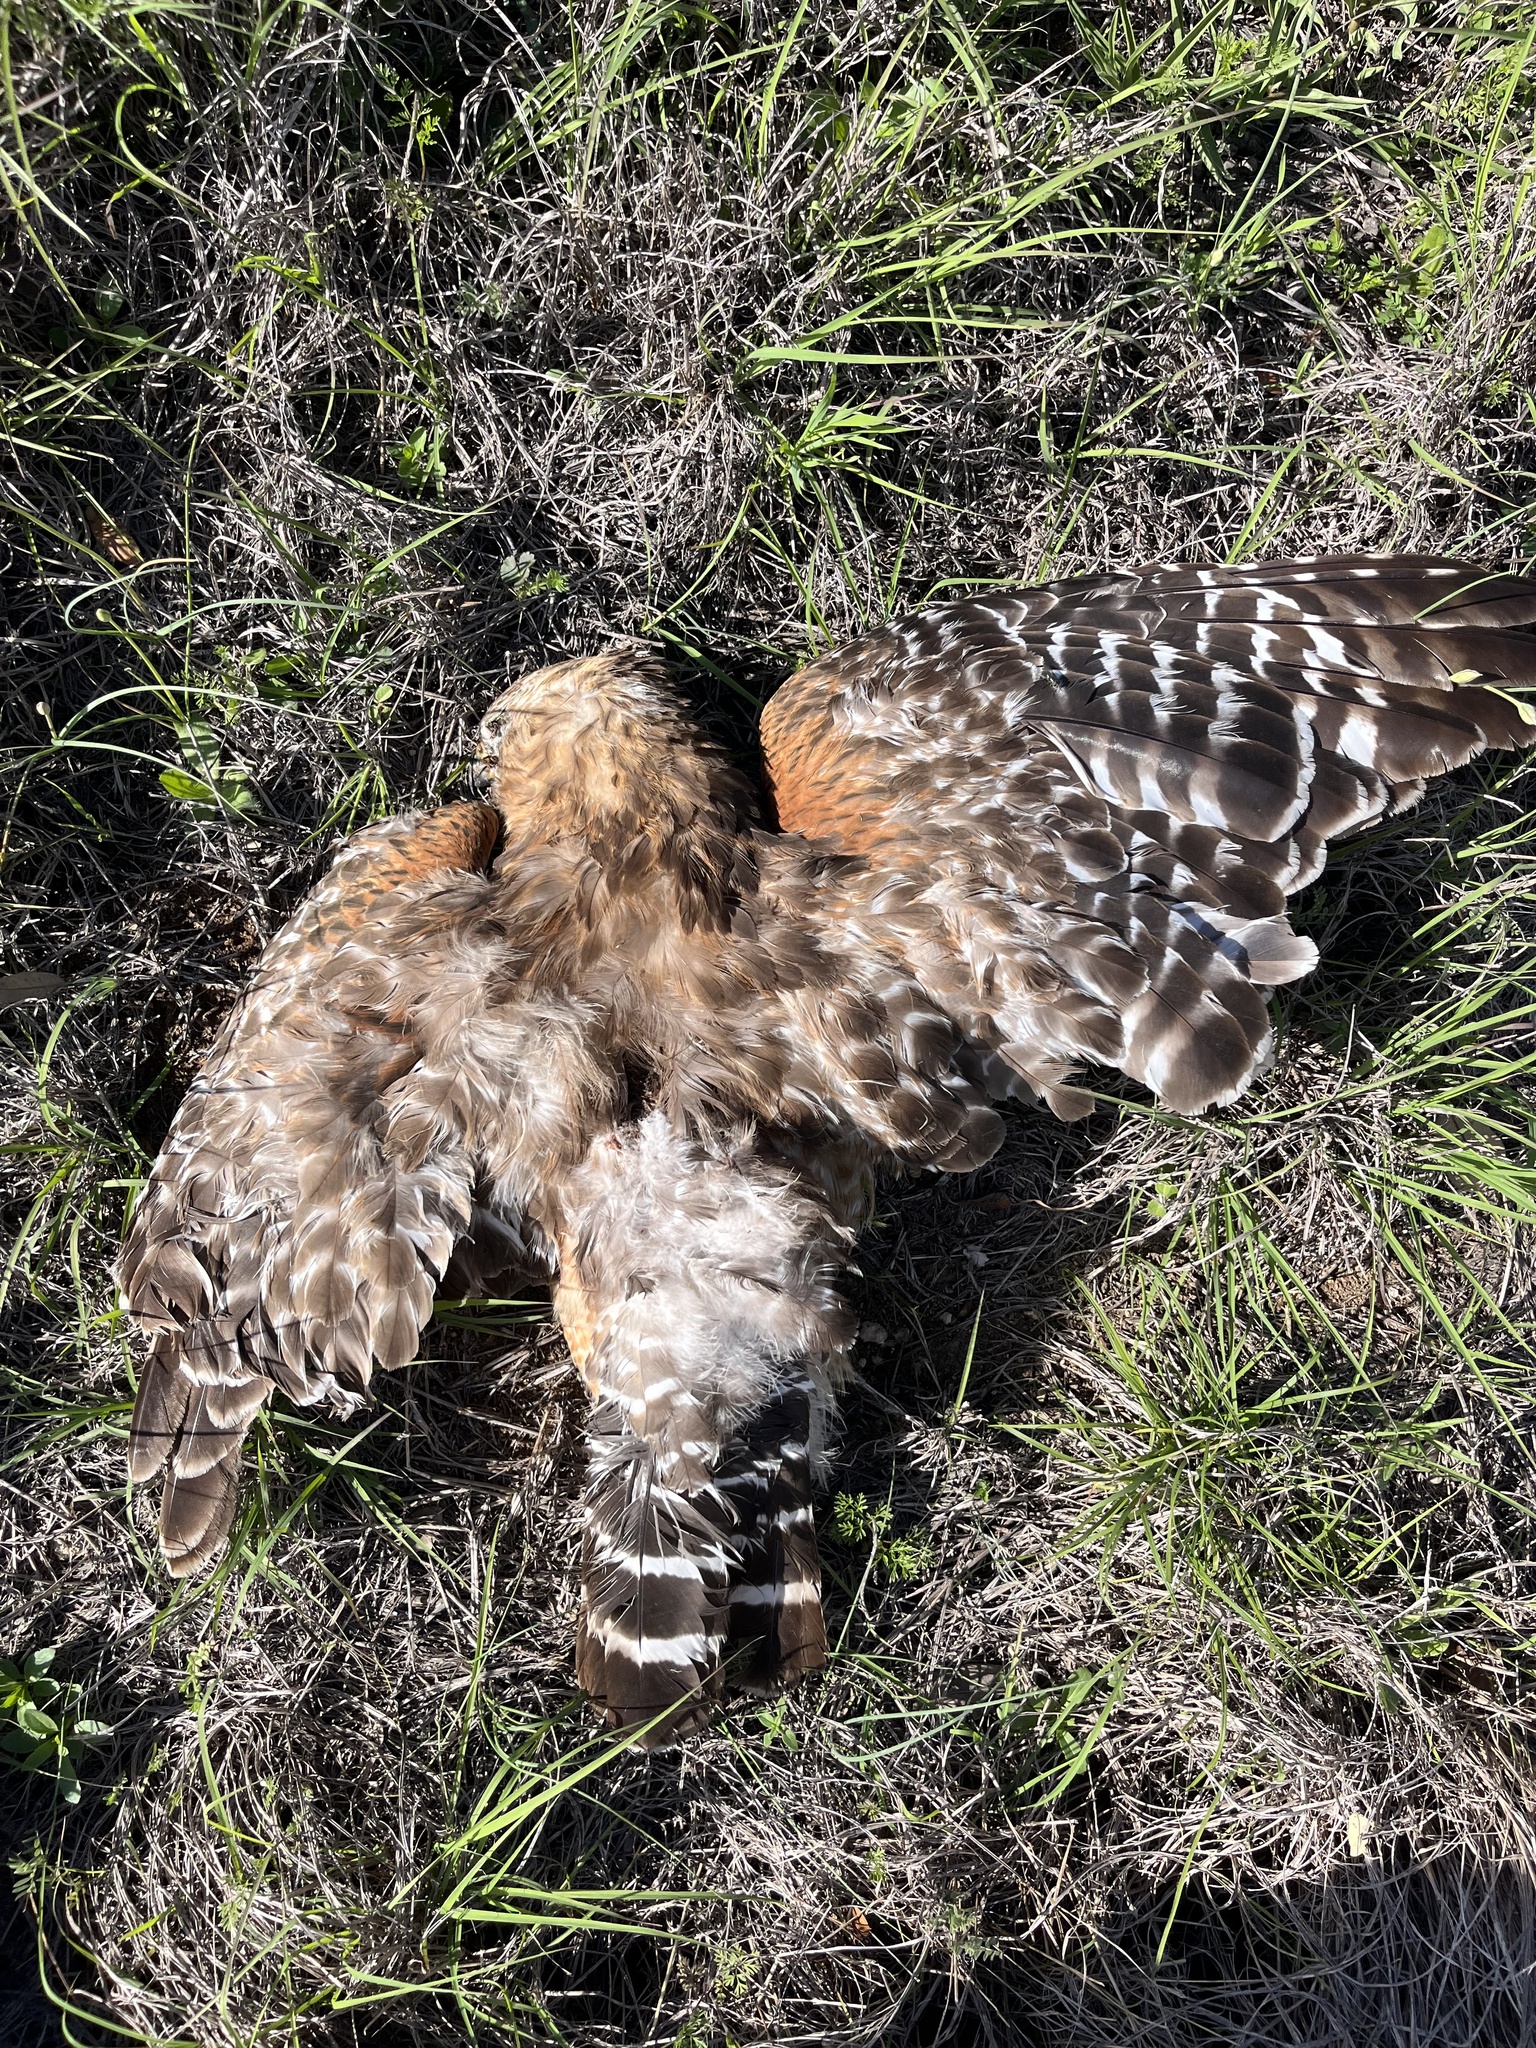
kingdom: Animalia
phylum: Chordata
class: Aves
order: Accipitriformes
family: Accipitridae
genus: Buteo
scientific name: Buteo lineatus
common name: Red-shouldered hawk
